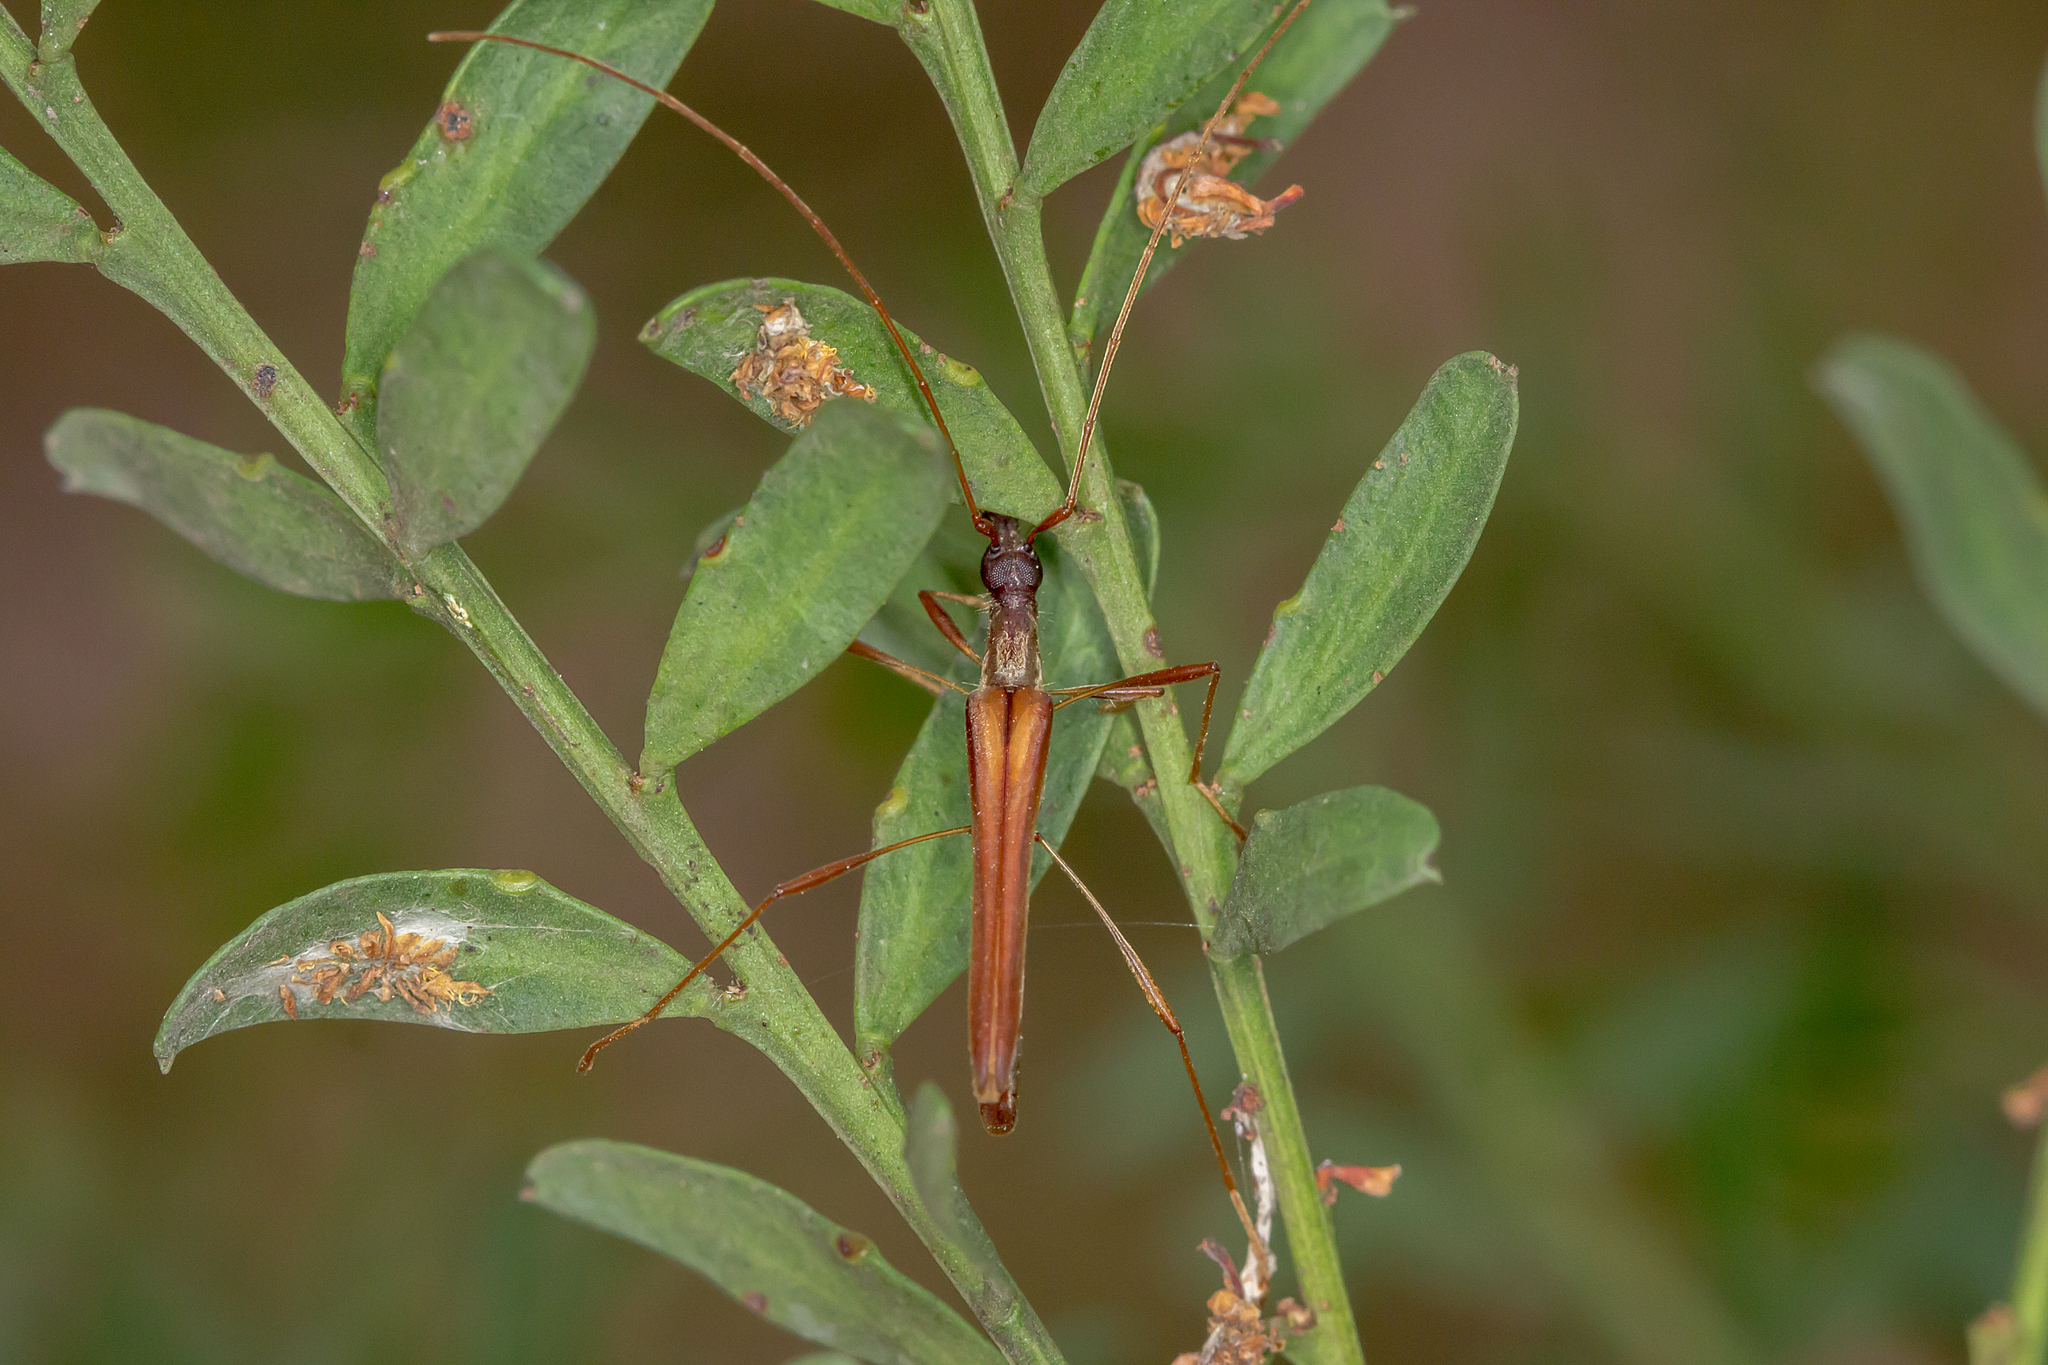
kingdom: Animalia
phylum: Arthropoda
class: Insecta
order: Coleoptera
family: Cerambycidae
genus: Rhinophthalmus
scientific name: Rhinophthalmus nasutus
